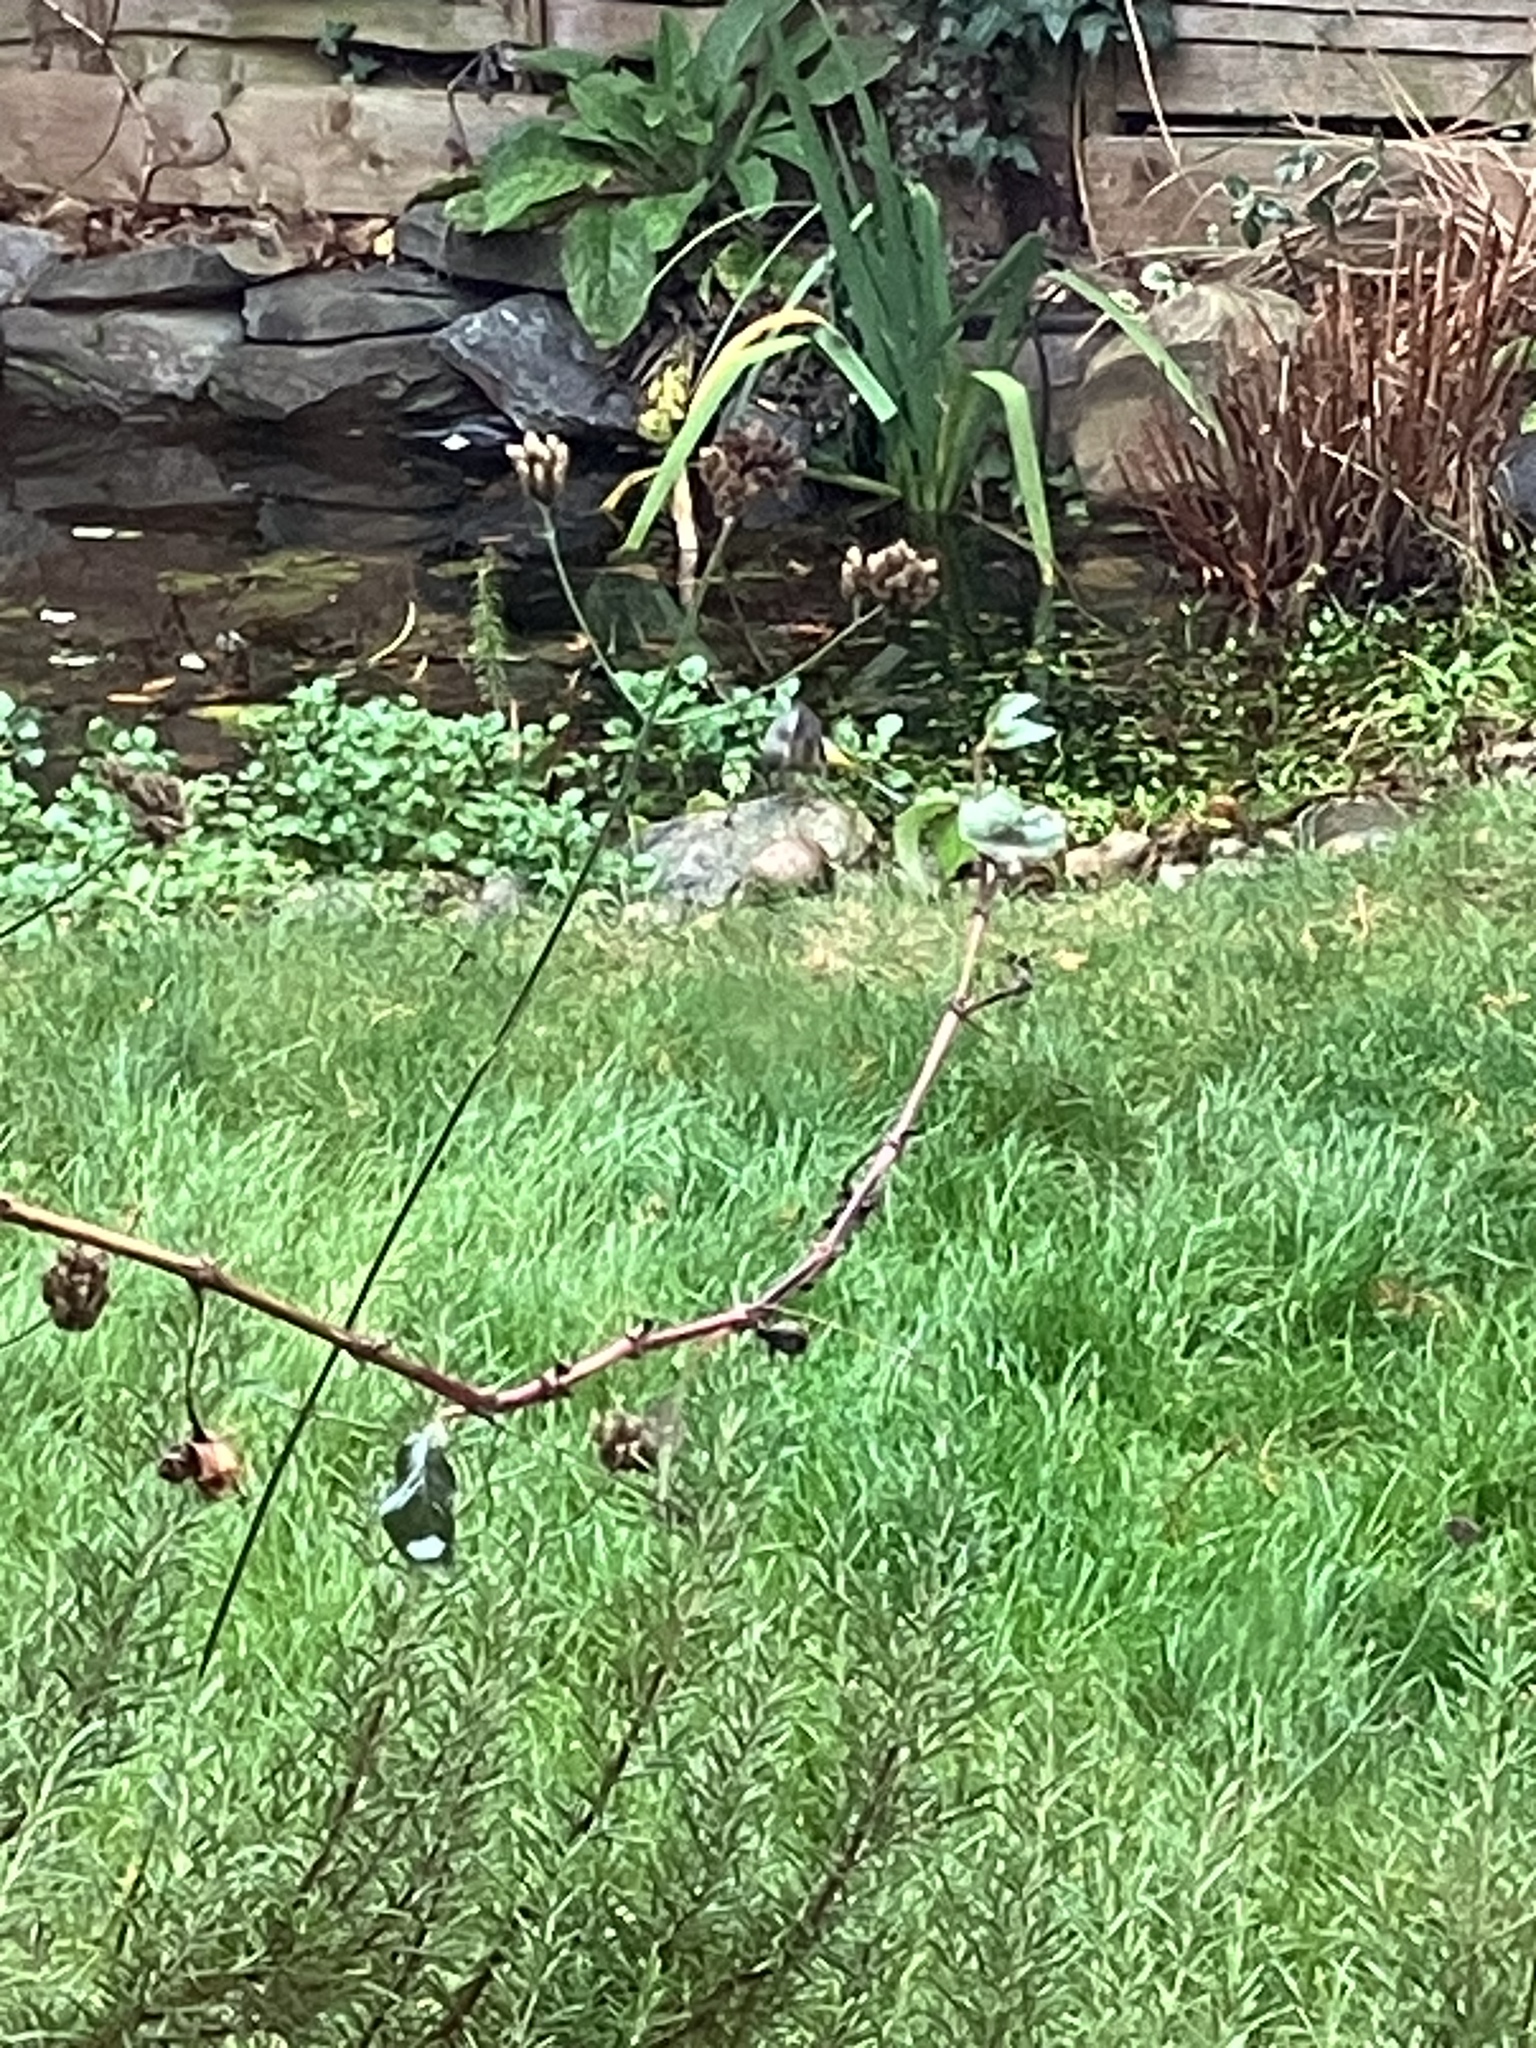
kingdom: Animalia
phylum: Chordata
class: Aves
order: Passeriformes
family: Motacillidae
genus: Motacilla
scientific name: Motacilla cinerea
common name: Grey wagtail
